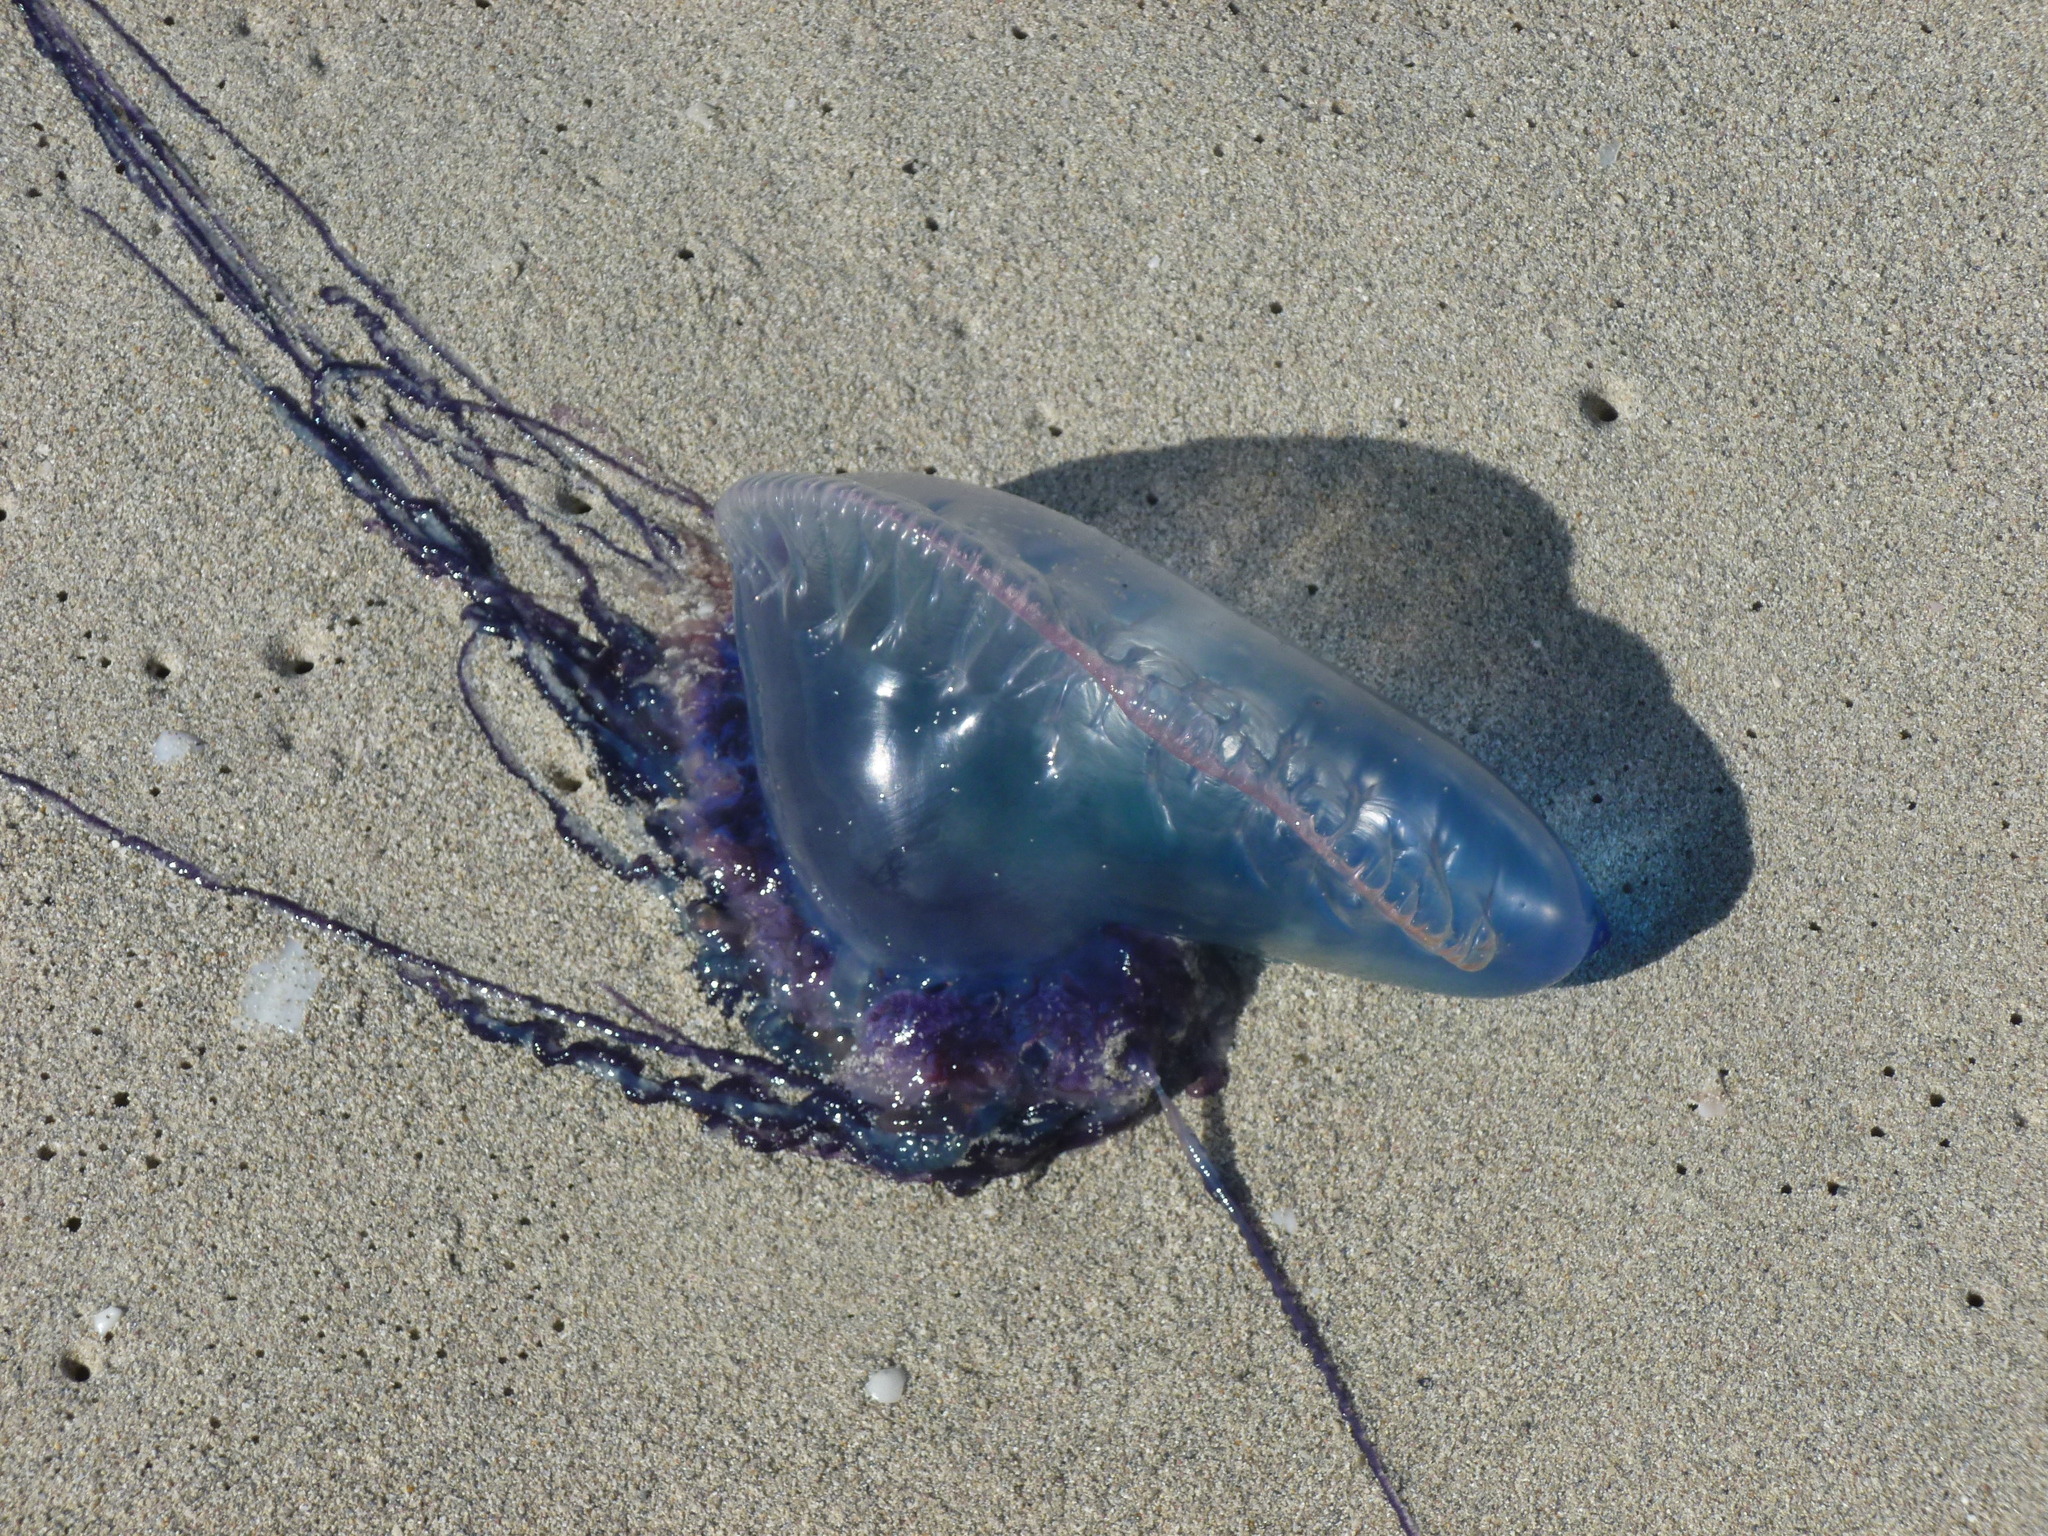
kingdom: Animalia
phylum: Cnidaria
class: Hydrozoa
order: Siphonophorae
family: Physaliidae
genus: Physalia
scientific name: Physalia physalis
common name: Portuguese man-of-war
